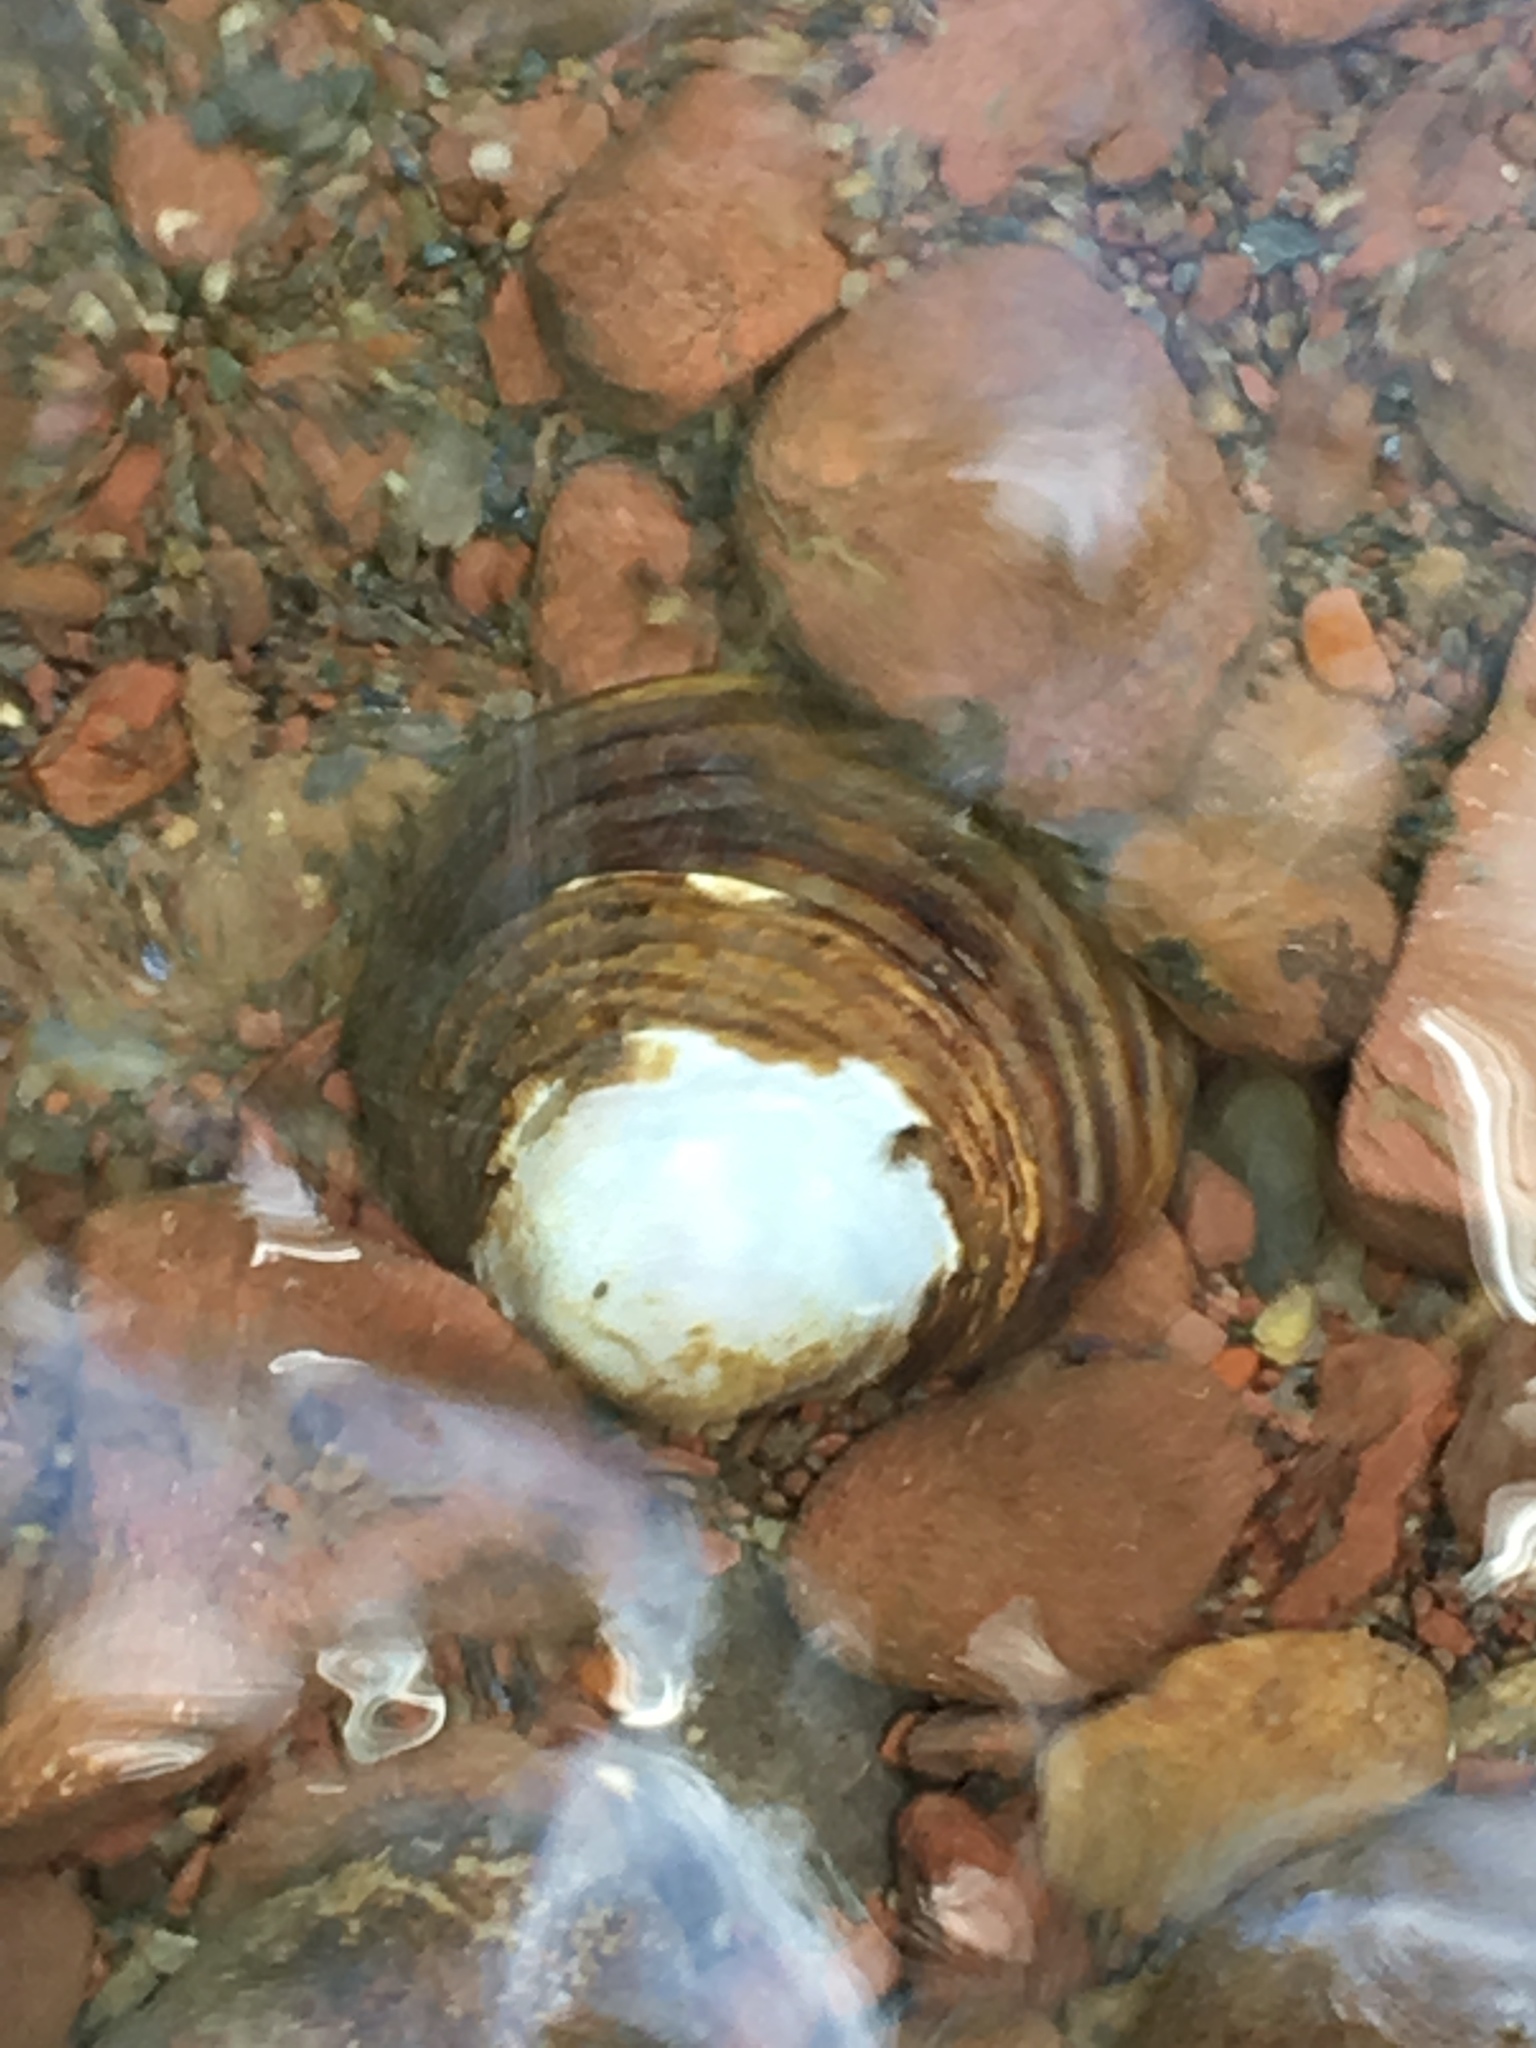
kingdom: Animalia
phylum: Mollusca
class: Bivalvia
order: Venerida
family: Cyrenidae
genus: Corbicula
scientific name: Corbicula fluminea
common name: Asian clam
